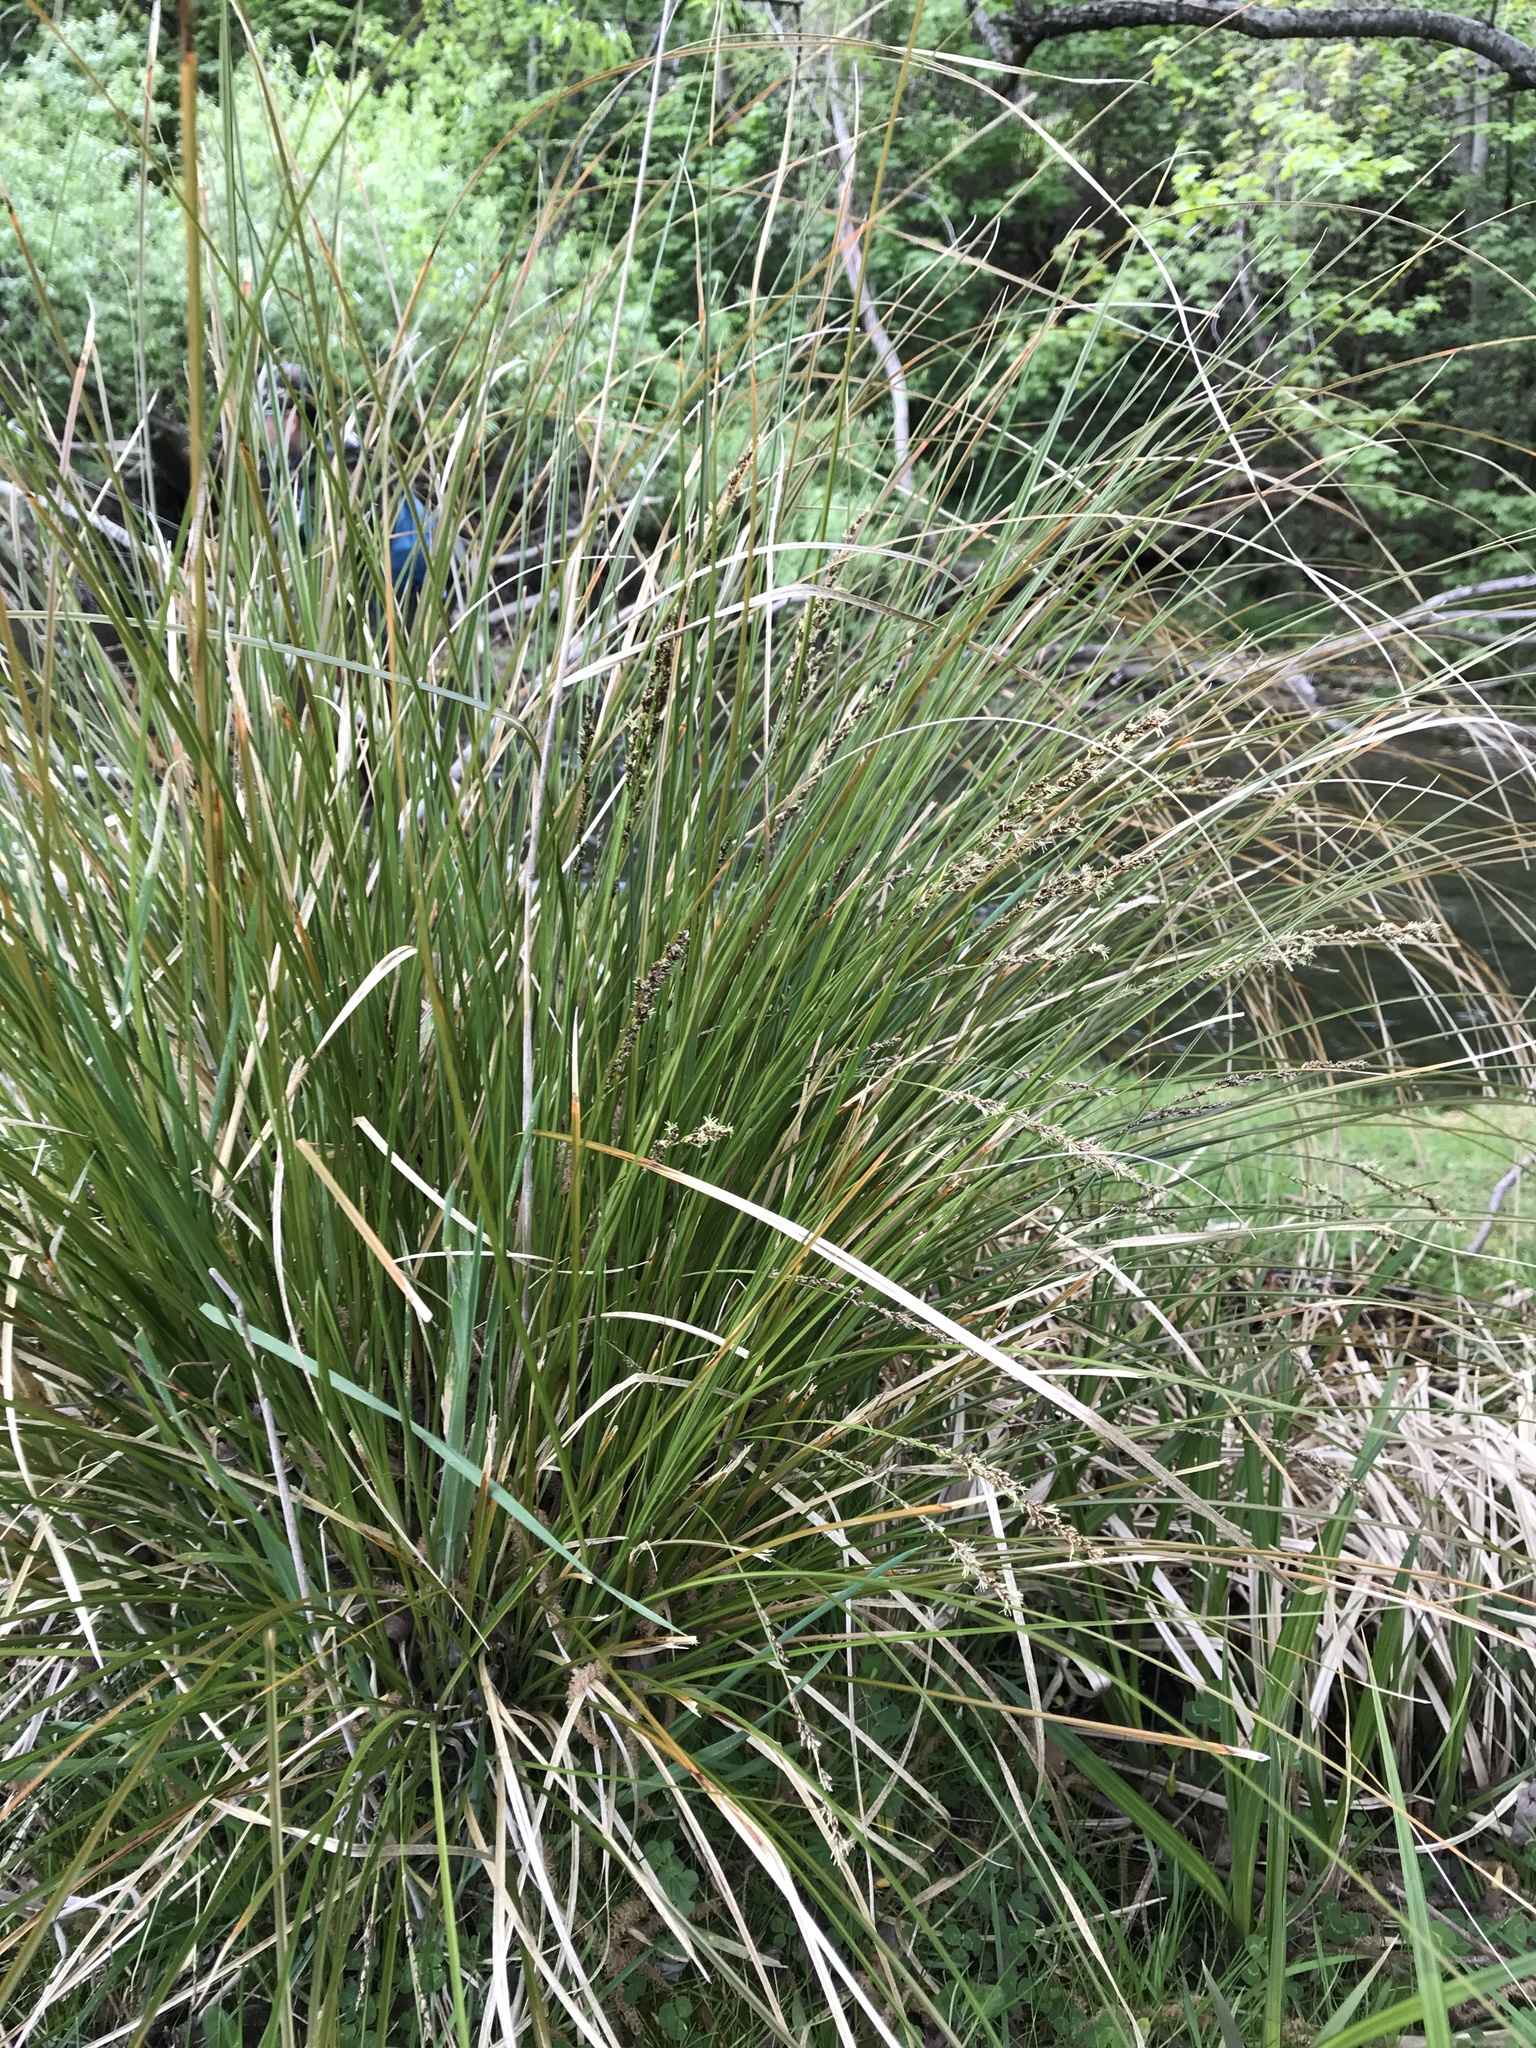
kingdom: Plantae
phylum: Tracheophyta
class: Liliopsida
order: Poales
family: Cyperaceae
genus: Carex
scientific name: Carex virgata
